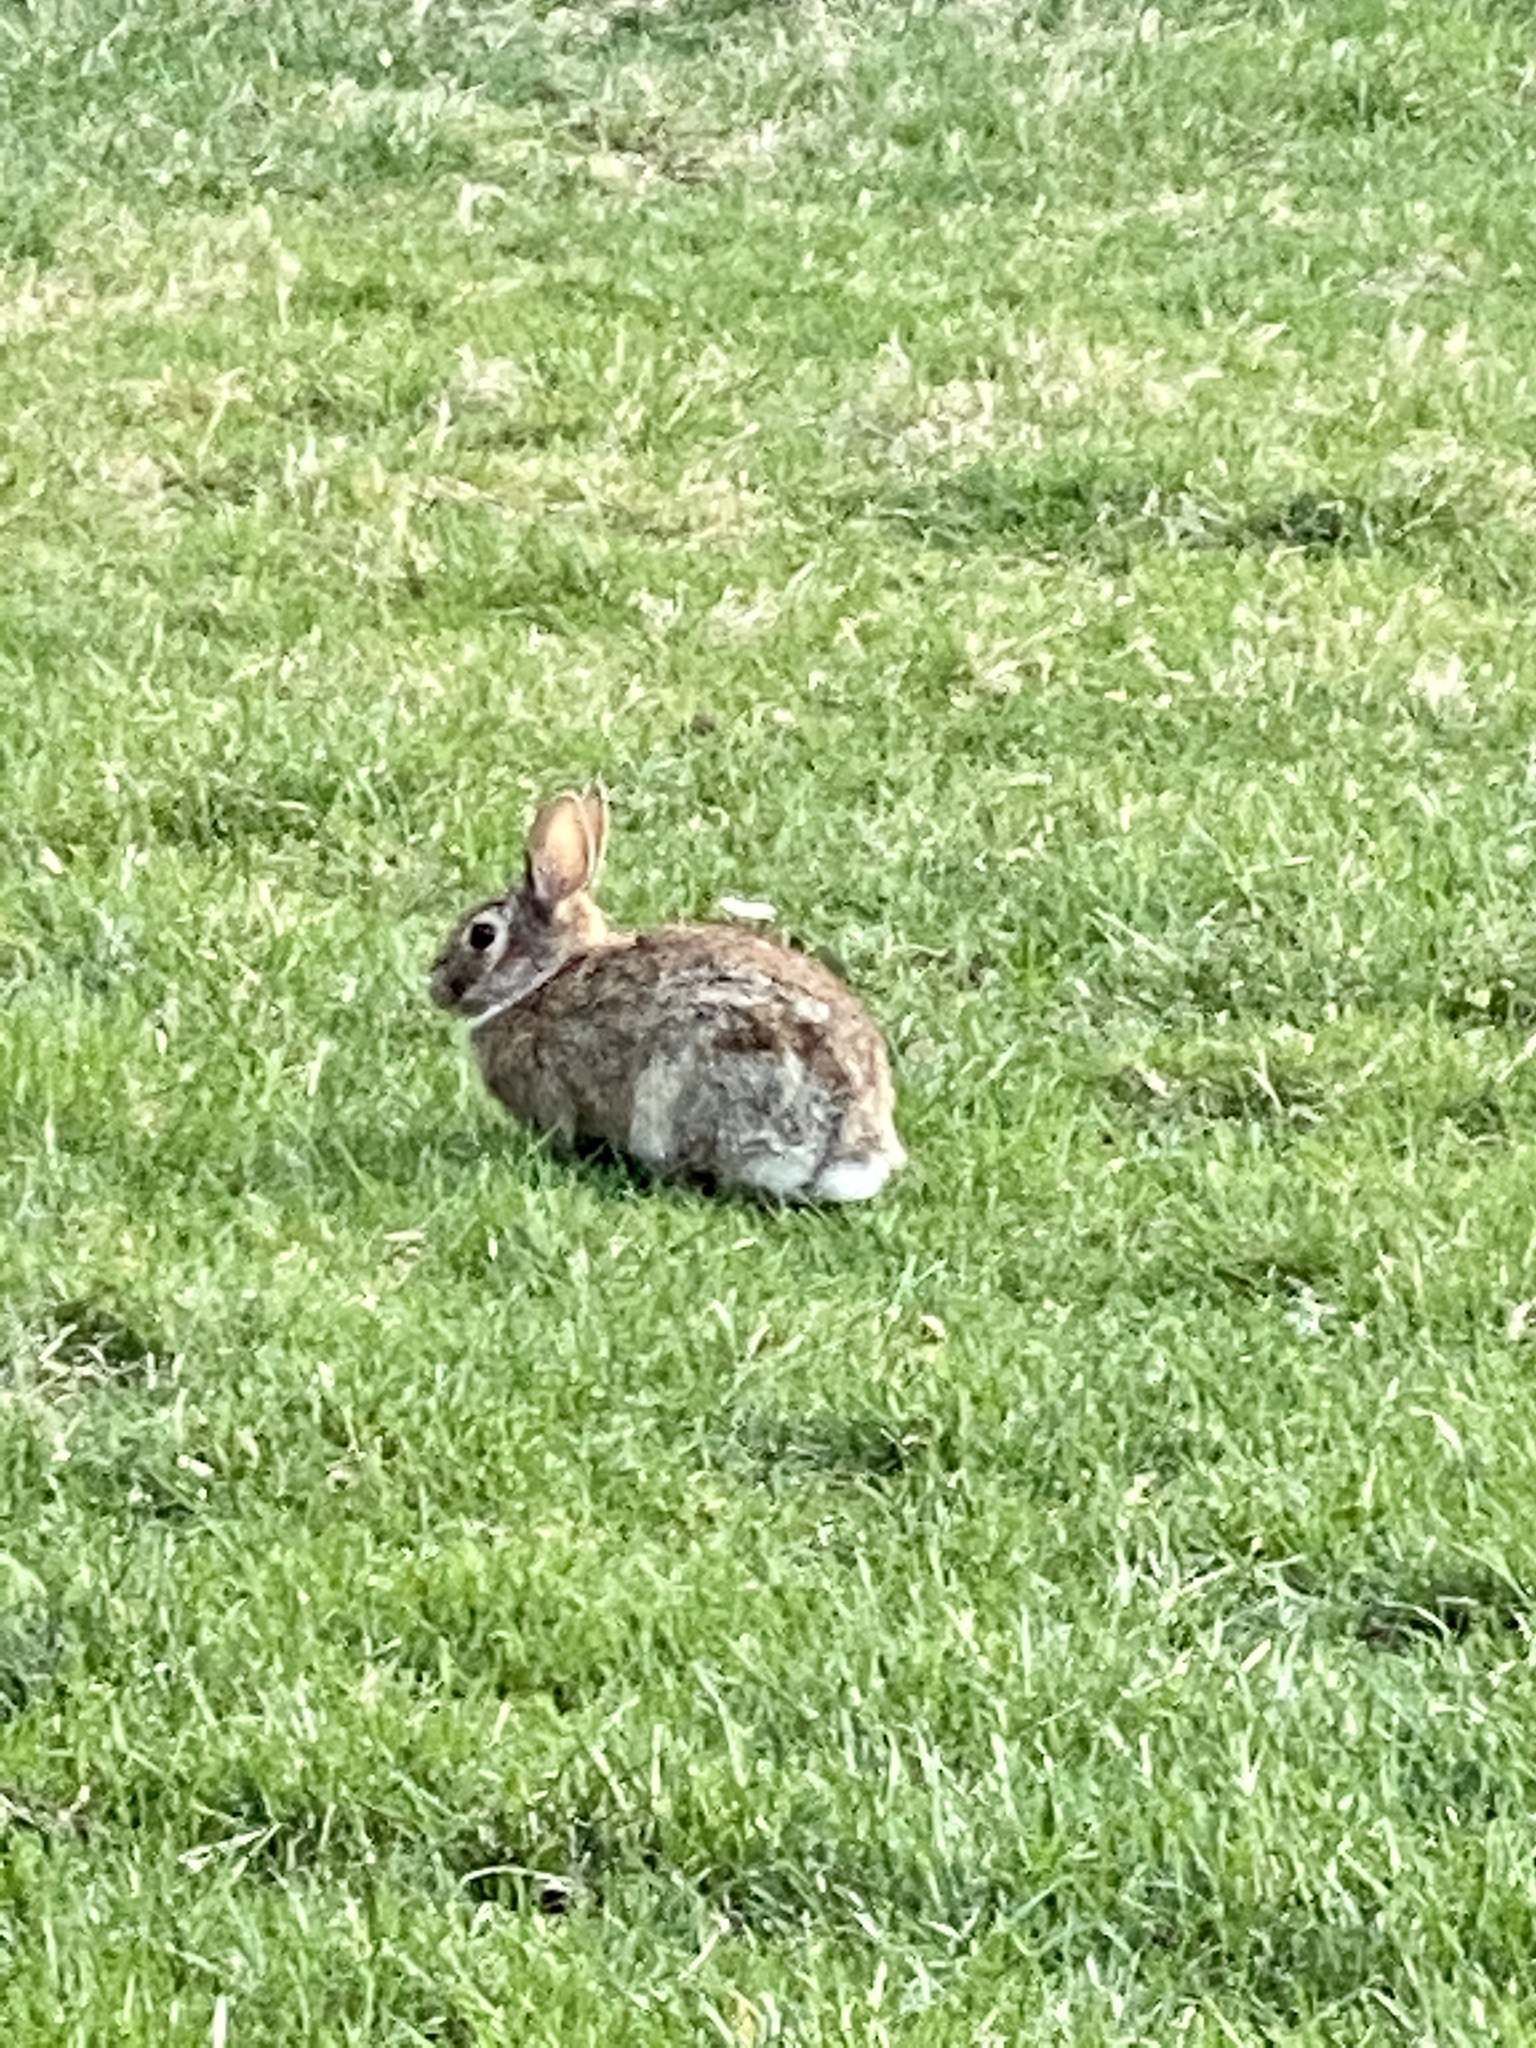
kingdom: Animalia
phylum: Chordata
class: Mammalia
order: Lagomorpha
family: Leporidae
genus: Sylvilagus
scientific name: Sylvilagus floridanus
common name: Eastern cottontail
